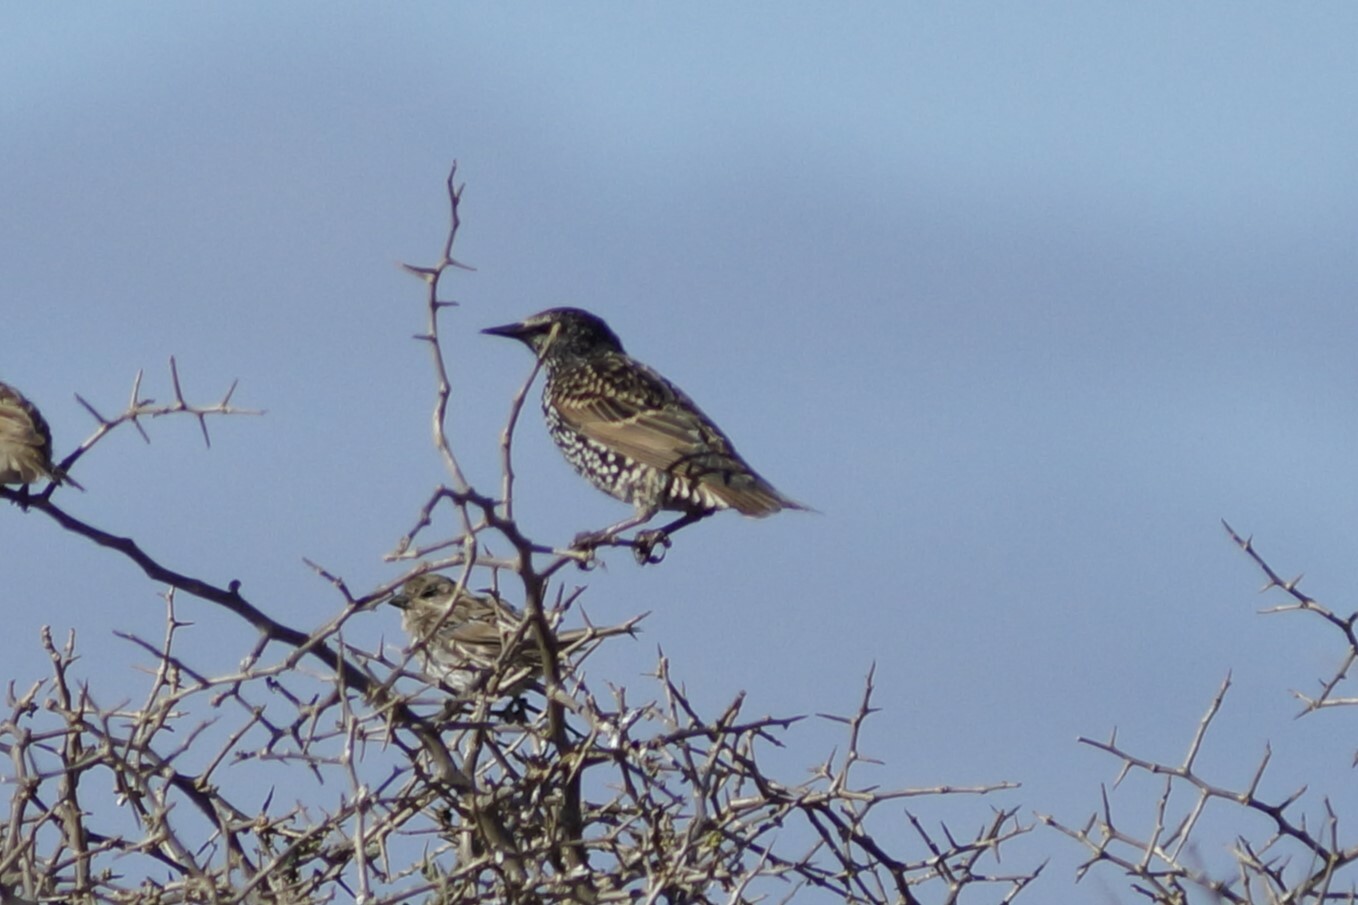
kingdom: Animalia
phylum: Chordata
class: Aves
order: Passeriformes
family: Sturnidae
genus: Sturnus
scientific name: Sturnus vulgaris
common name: Common starling
